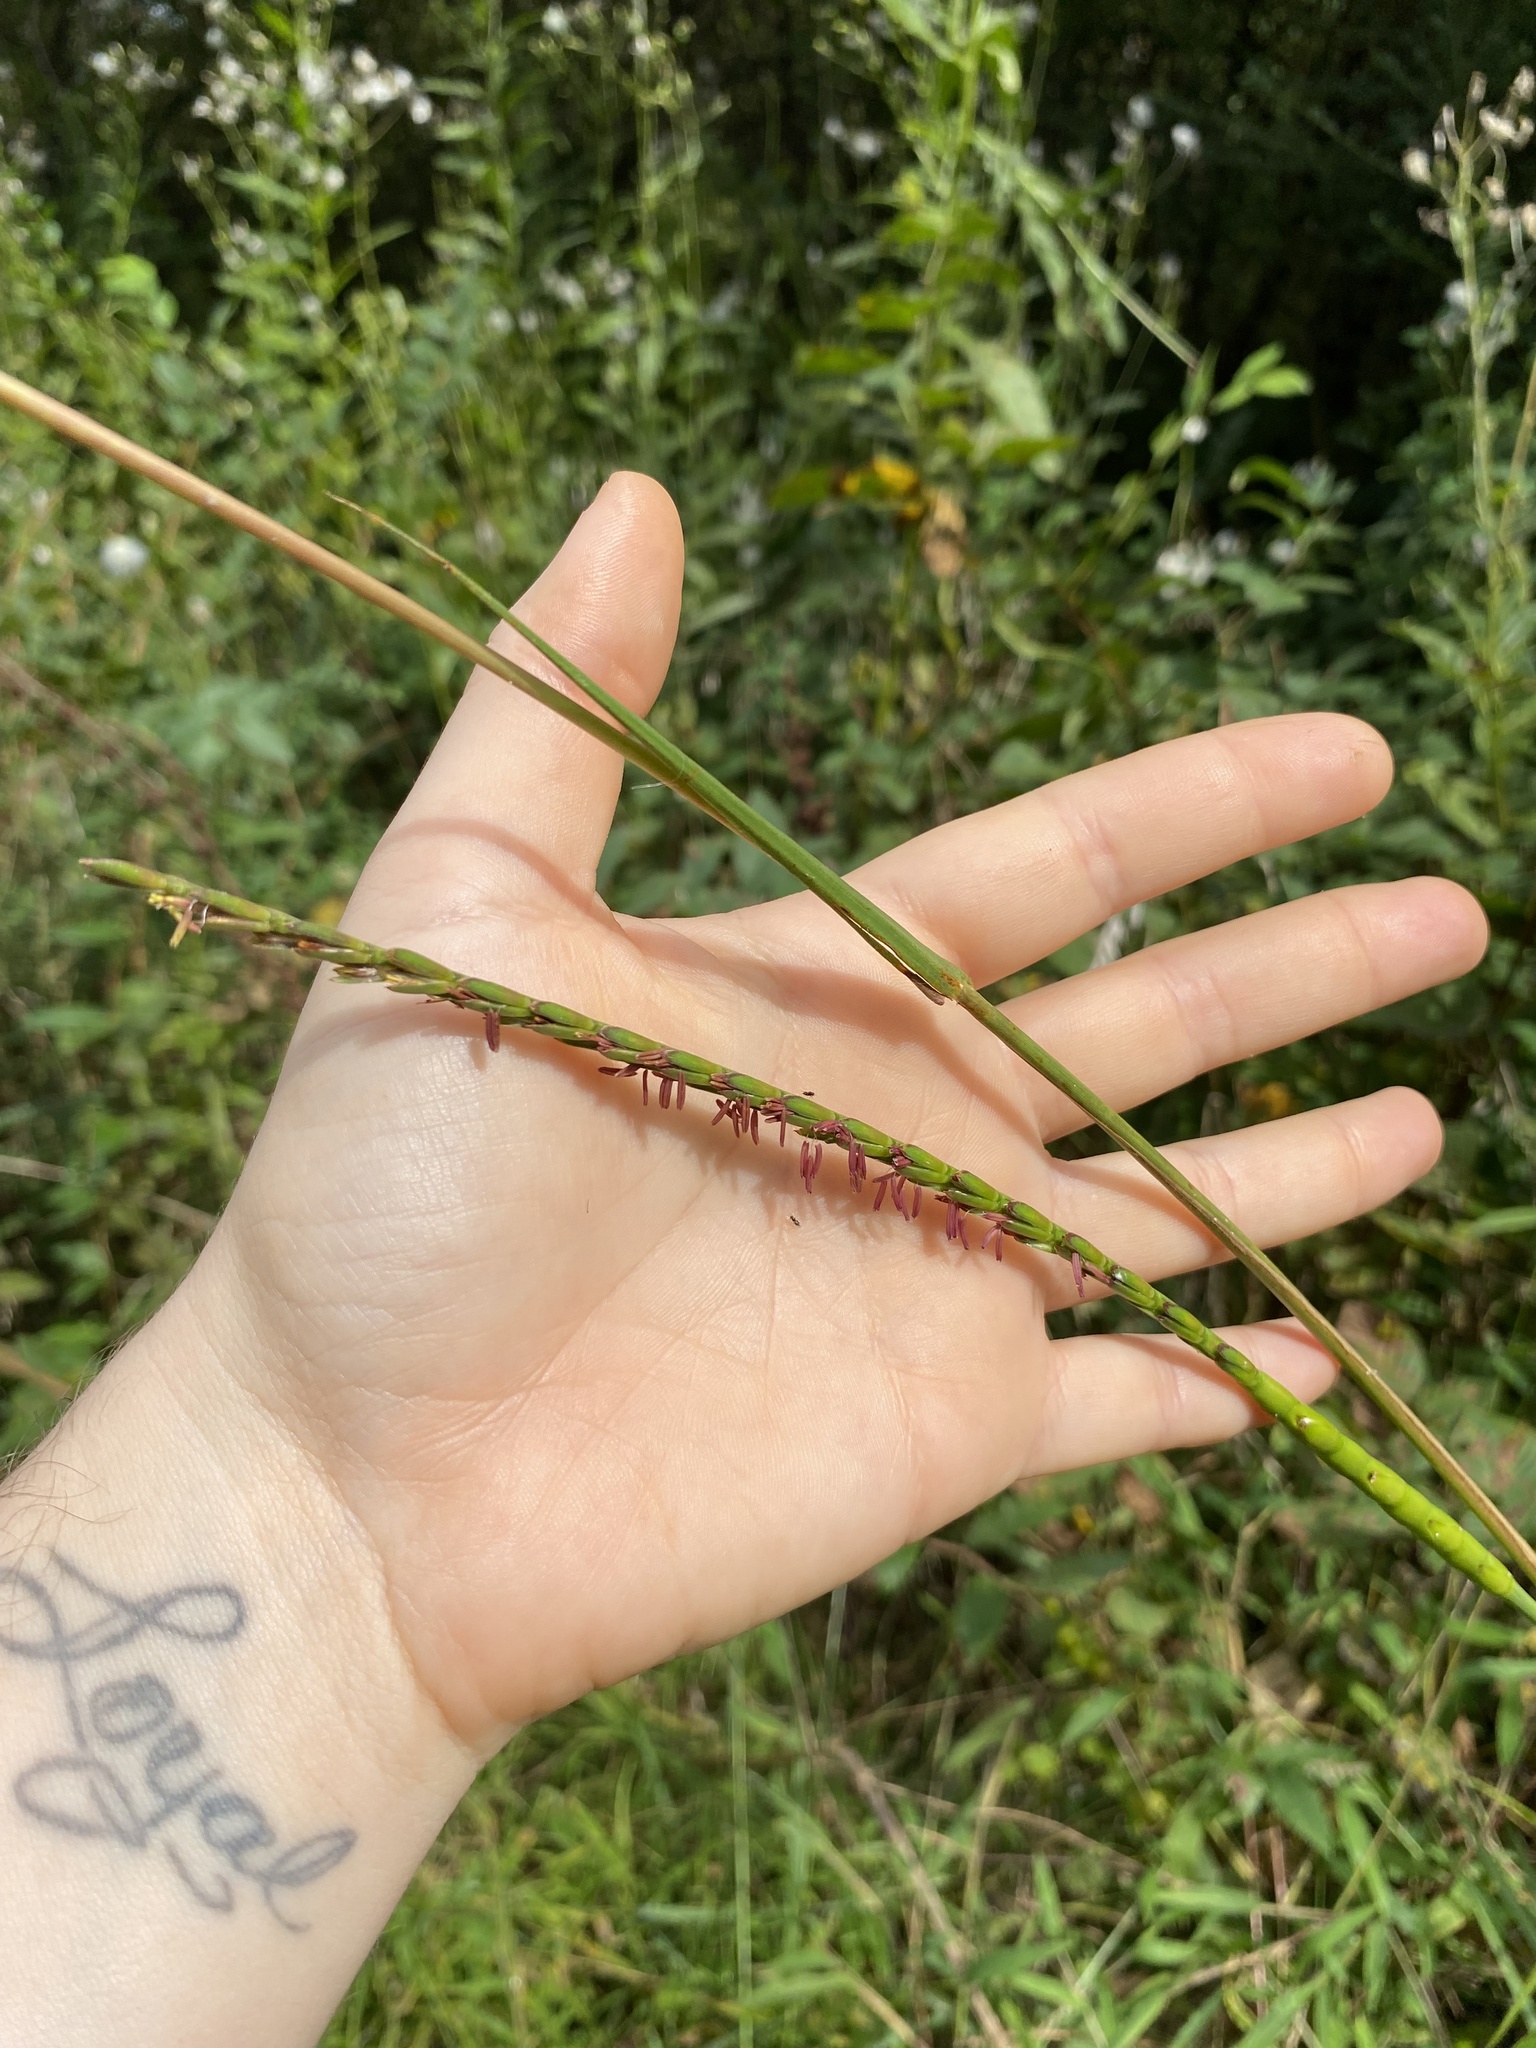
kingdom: Plantae
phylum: Tracheophyta
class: Liliopsida
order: Poales
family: Poaceae
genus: Tripsacum
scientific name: Tripsacum dactyloides
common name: Buffalo-grass
